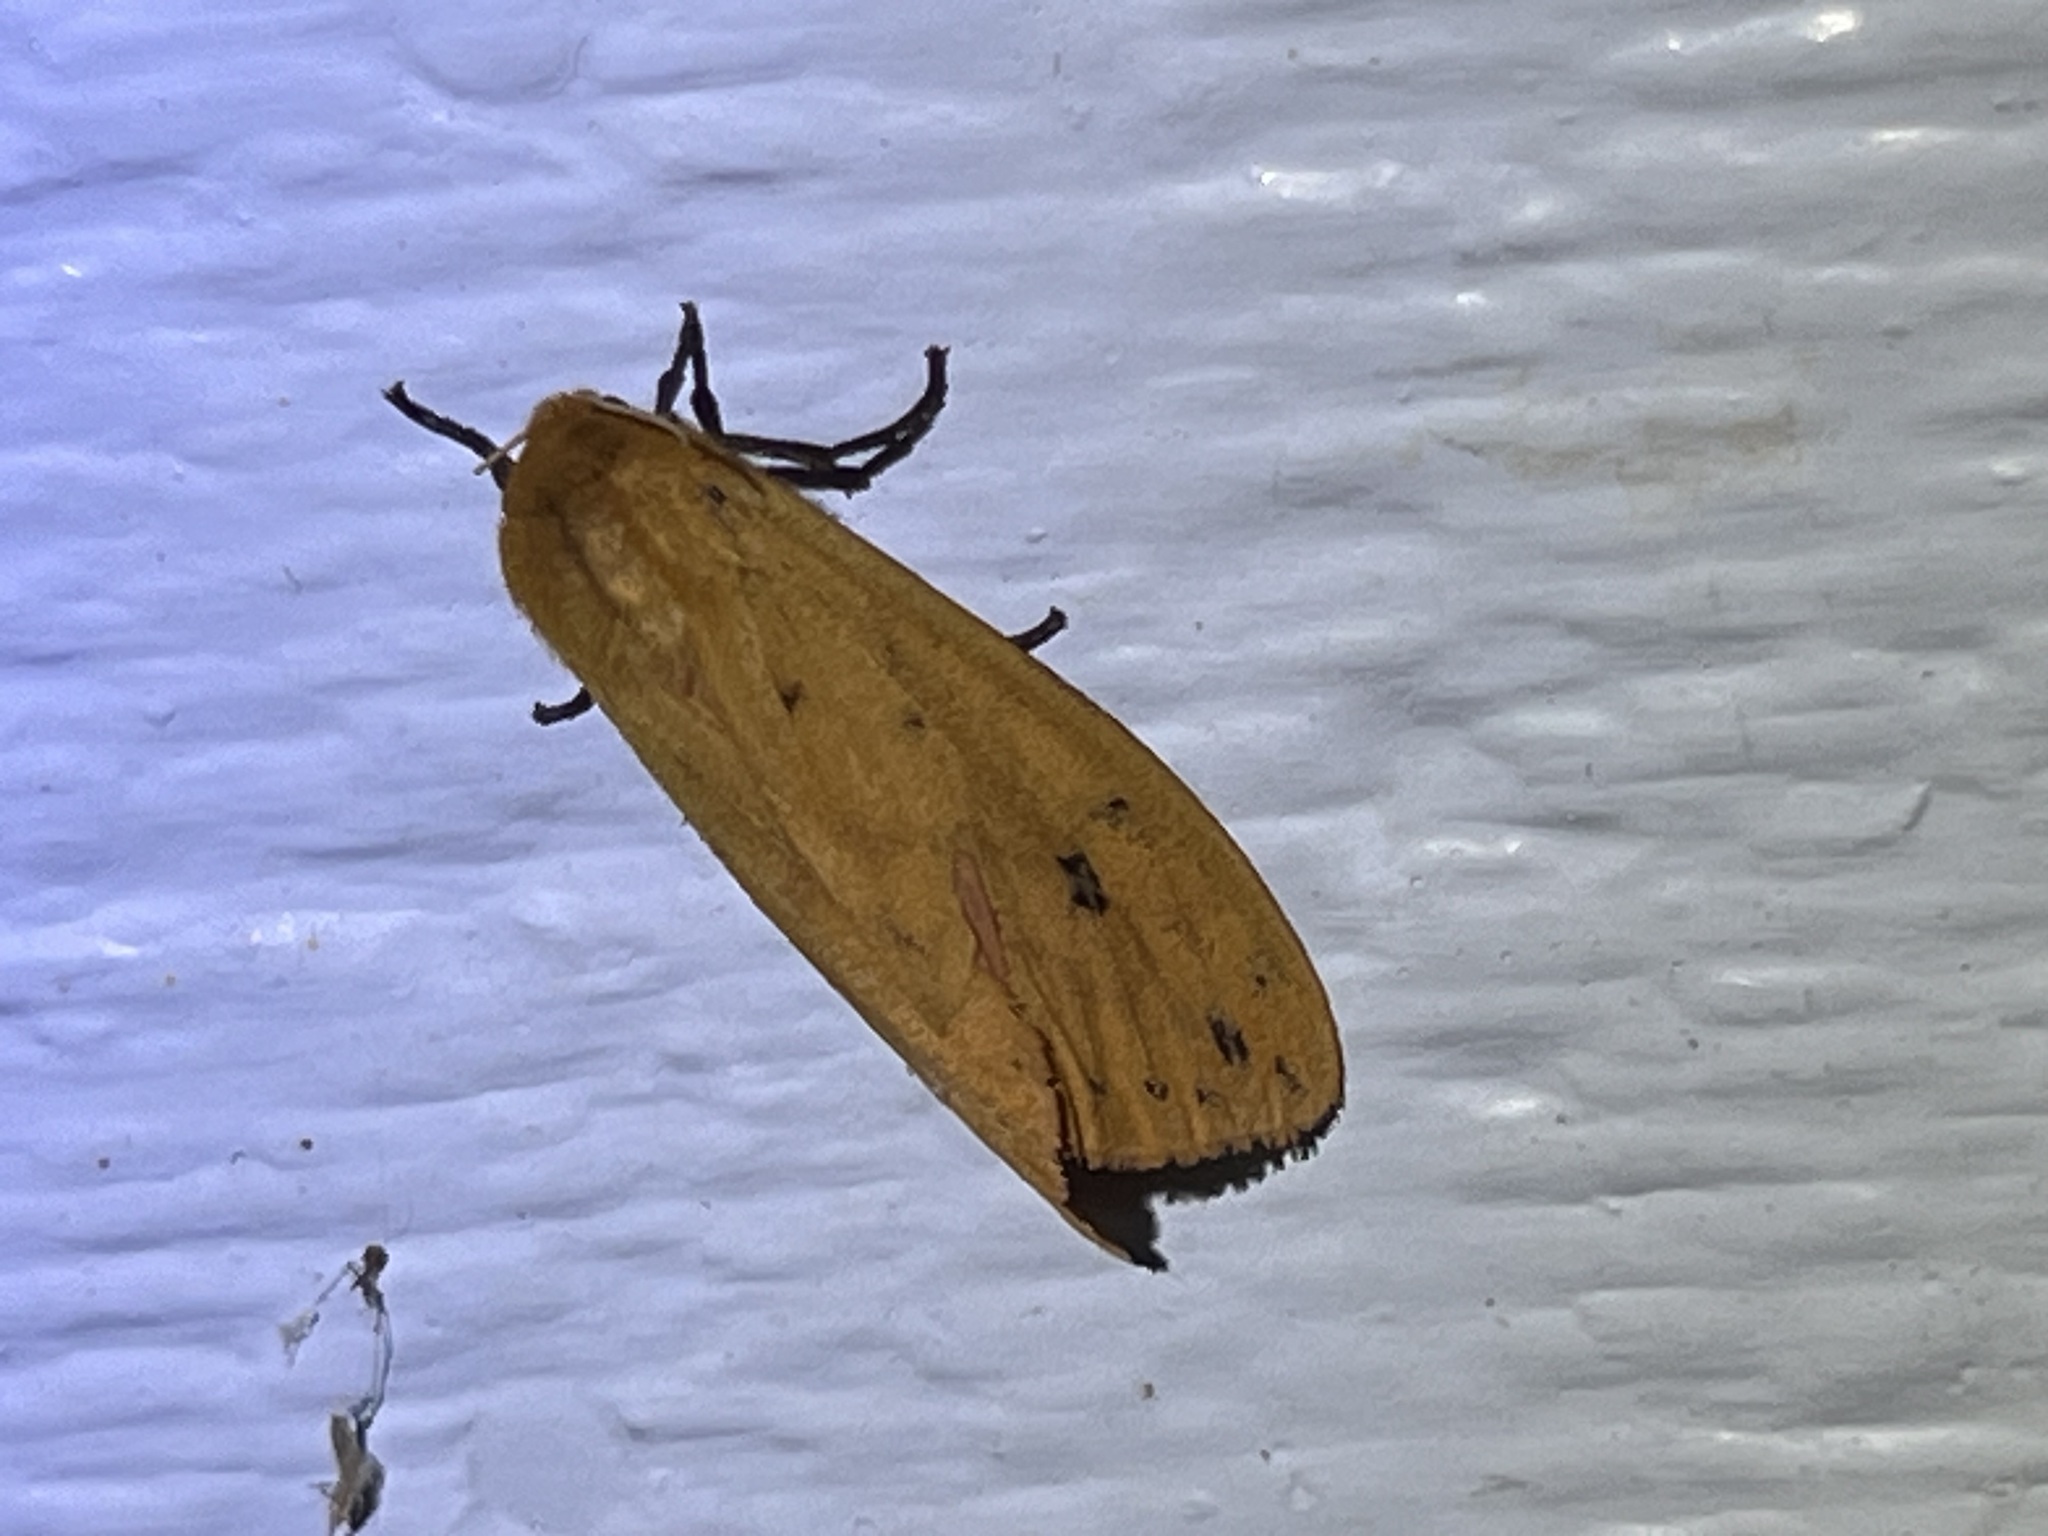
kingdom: Animalia
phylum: Arthropoda
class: Insecta
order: Lepidoptera
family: Erebidae
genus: Pyrrharctia
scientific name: Pyrrharctia isabella
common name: Isabella tiger moth
